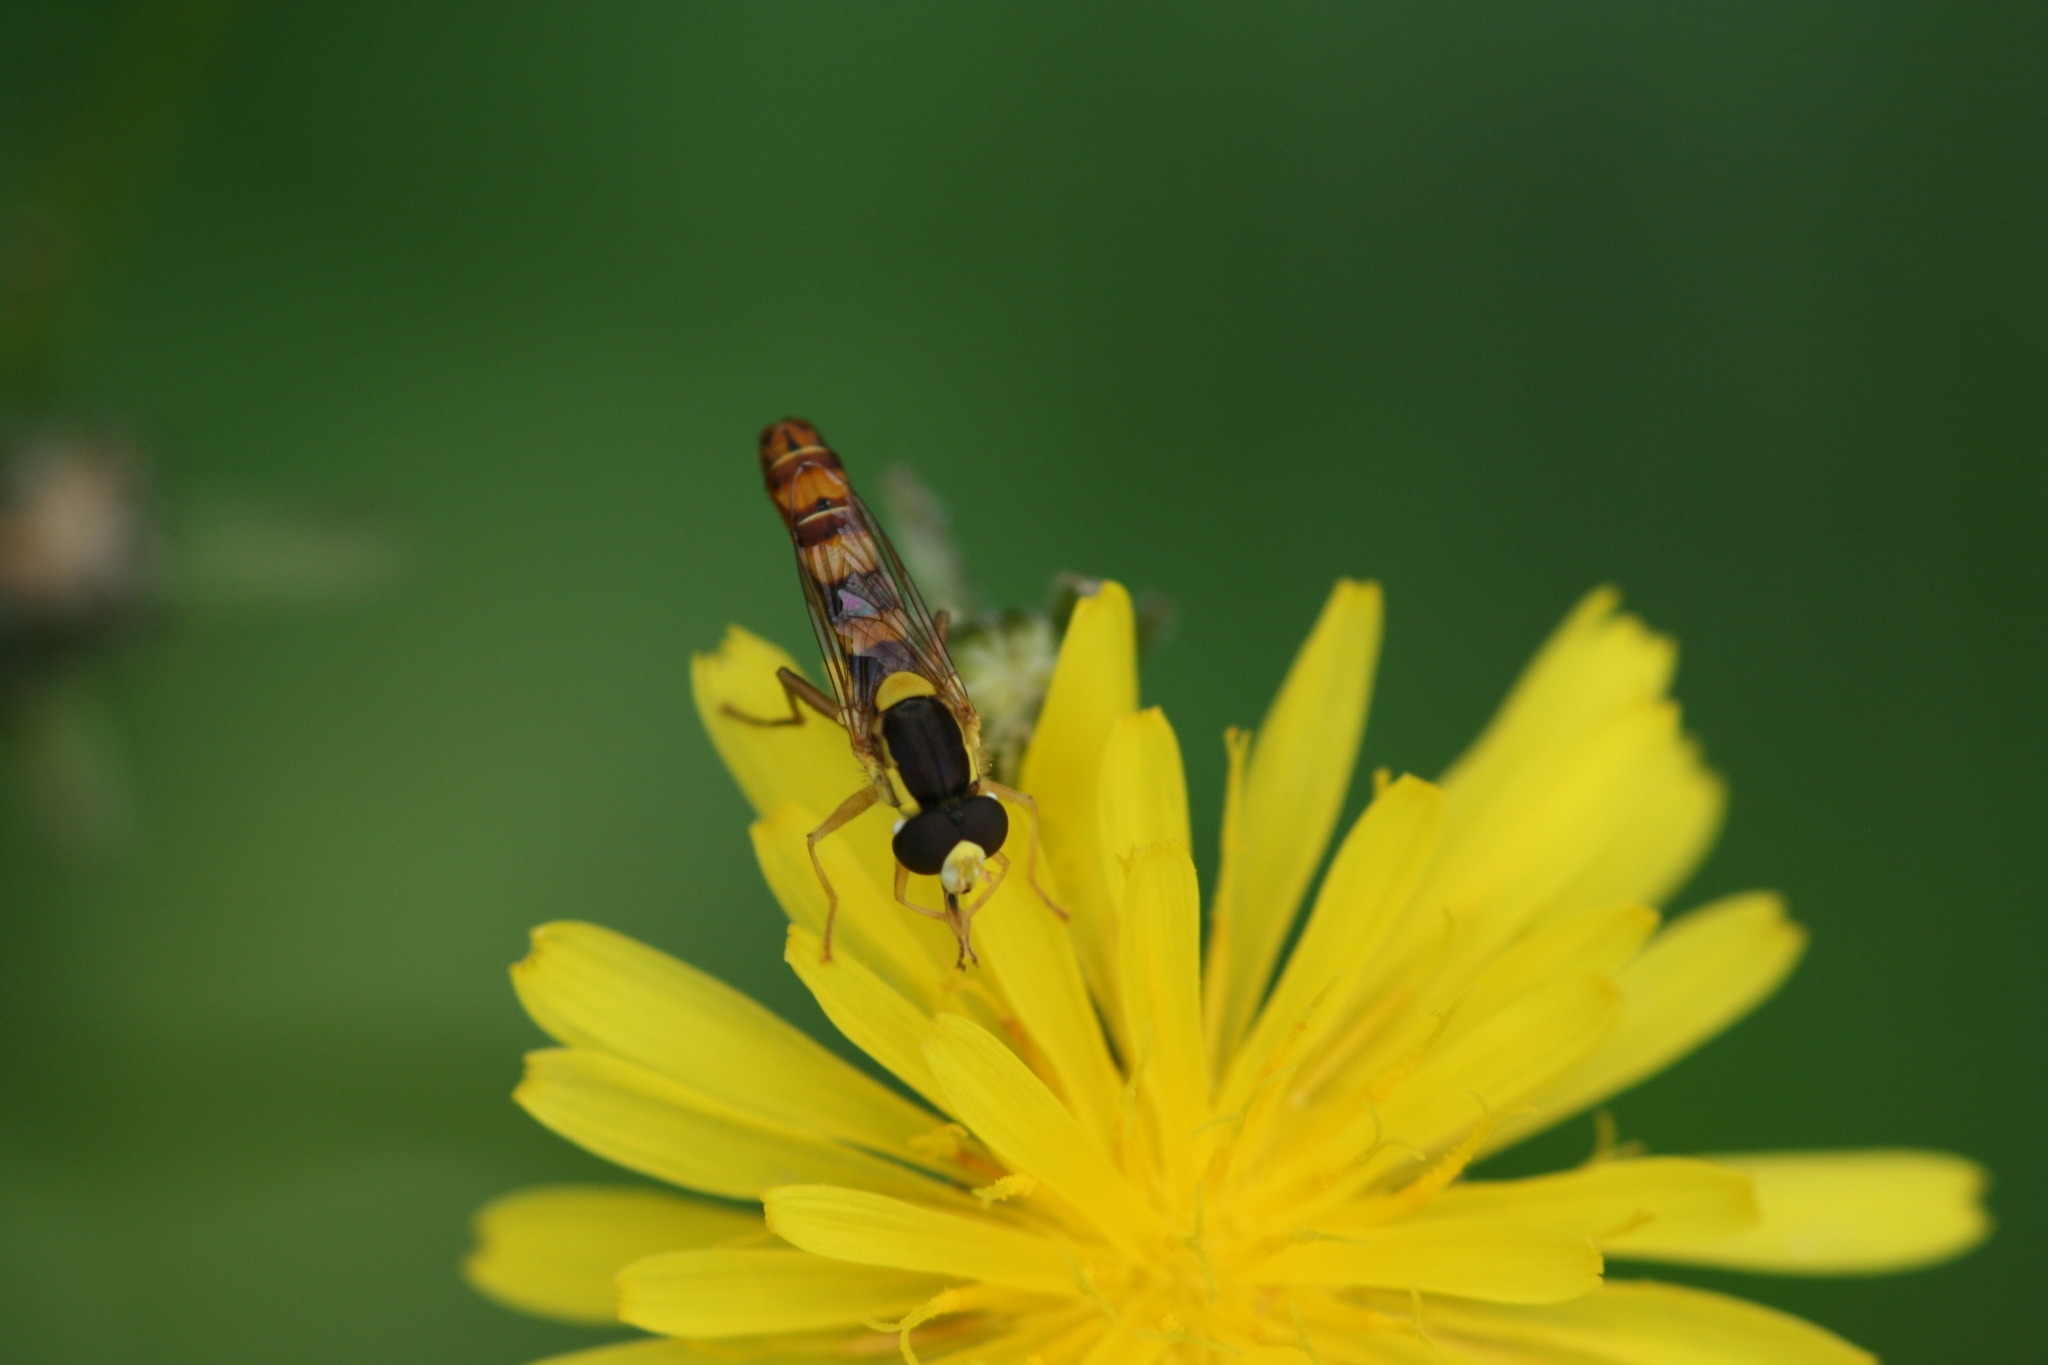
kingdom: Animalia
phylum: Arthropoda
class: Insecta
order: Diptera
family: Syrphidae
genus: Sphaerophoria
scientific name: Sphaerophoria scripta
